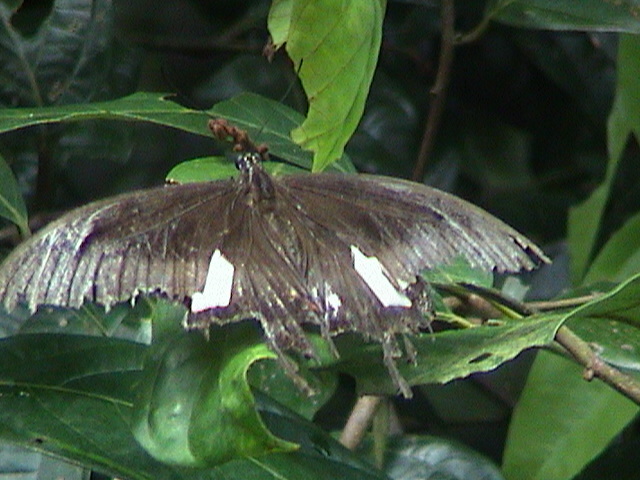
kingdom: Animalia
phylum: Arthropoda
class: Insecta
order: Lepidoptera
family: Papilionidae
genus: Papilio
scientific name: Papilio helenus
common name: Red helen
